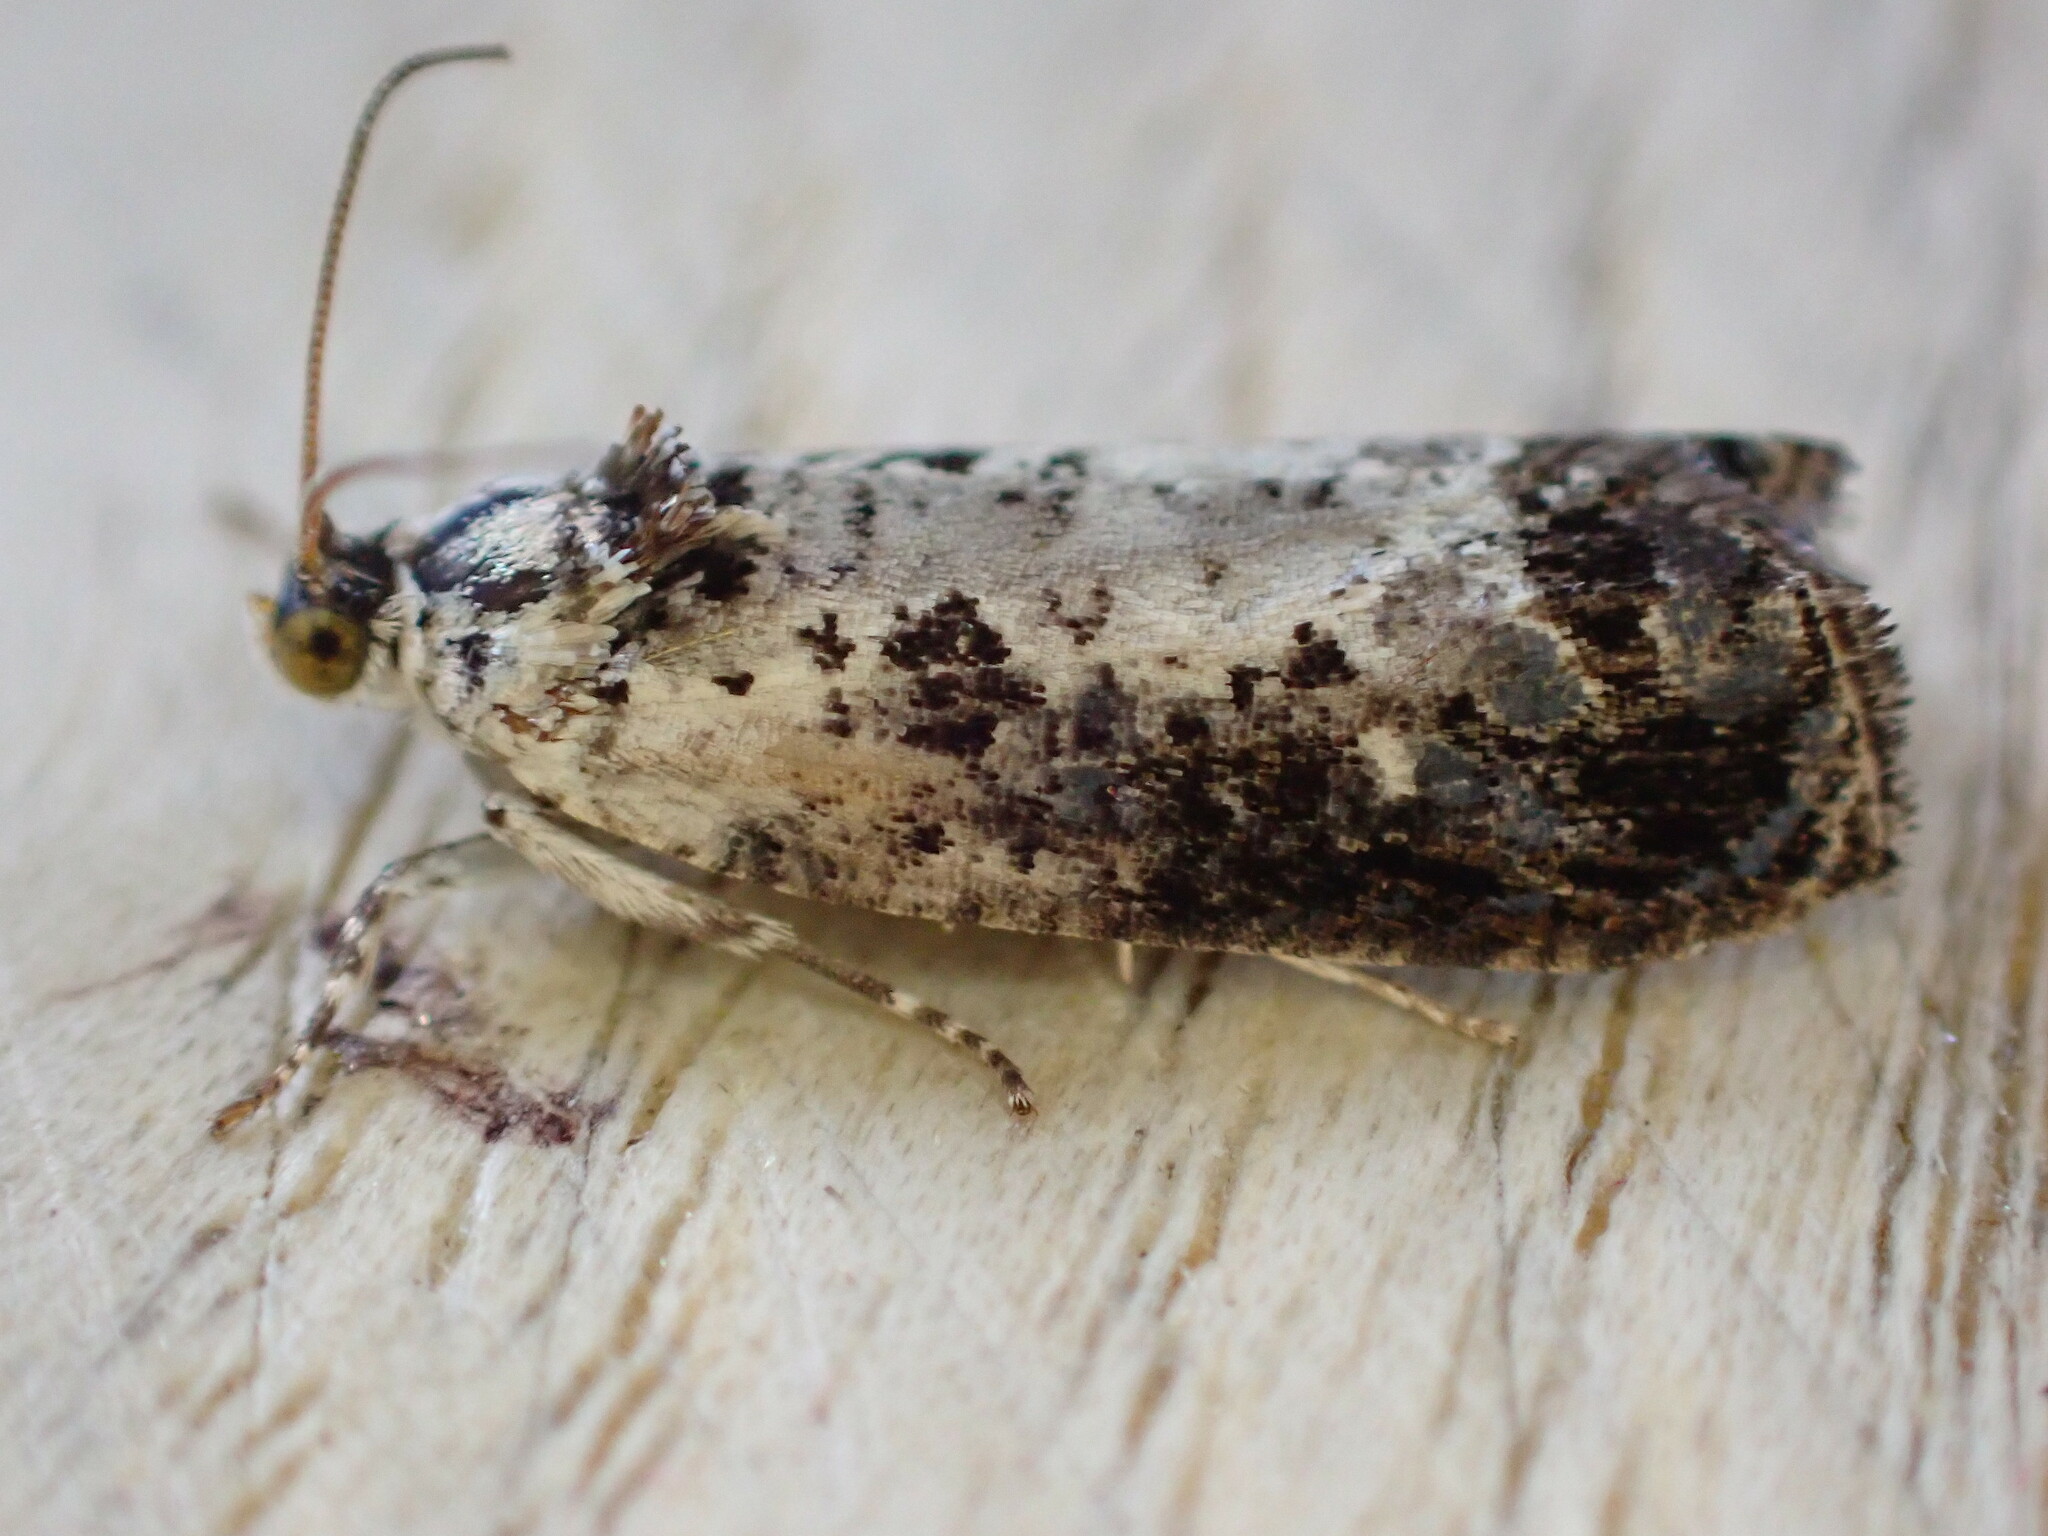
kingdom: Animalia
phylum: Arthropoda
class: Insecta
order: Lepidoptera
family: Tortricidae
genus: Hedya
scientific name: Hedya salicella
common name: Large tortricid moth
